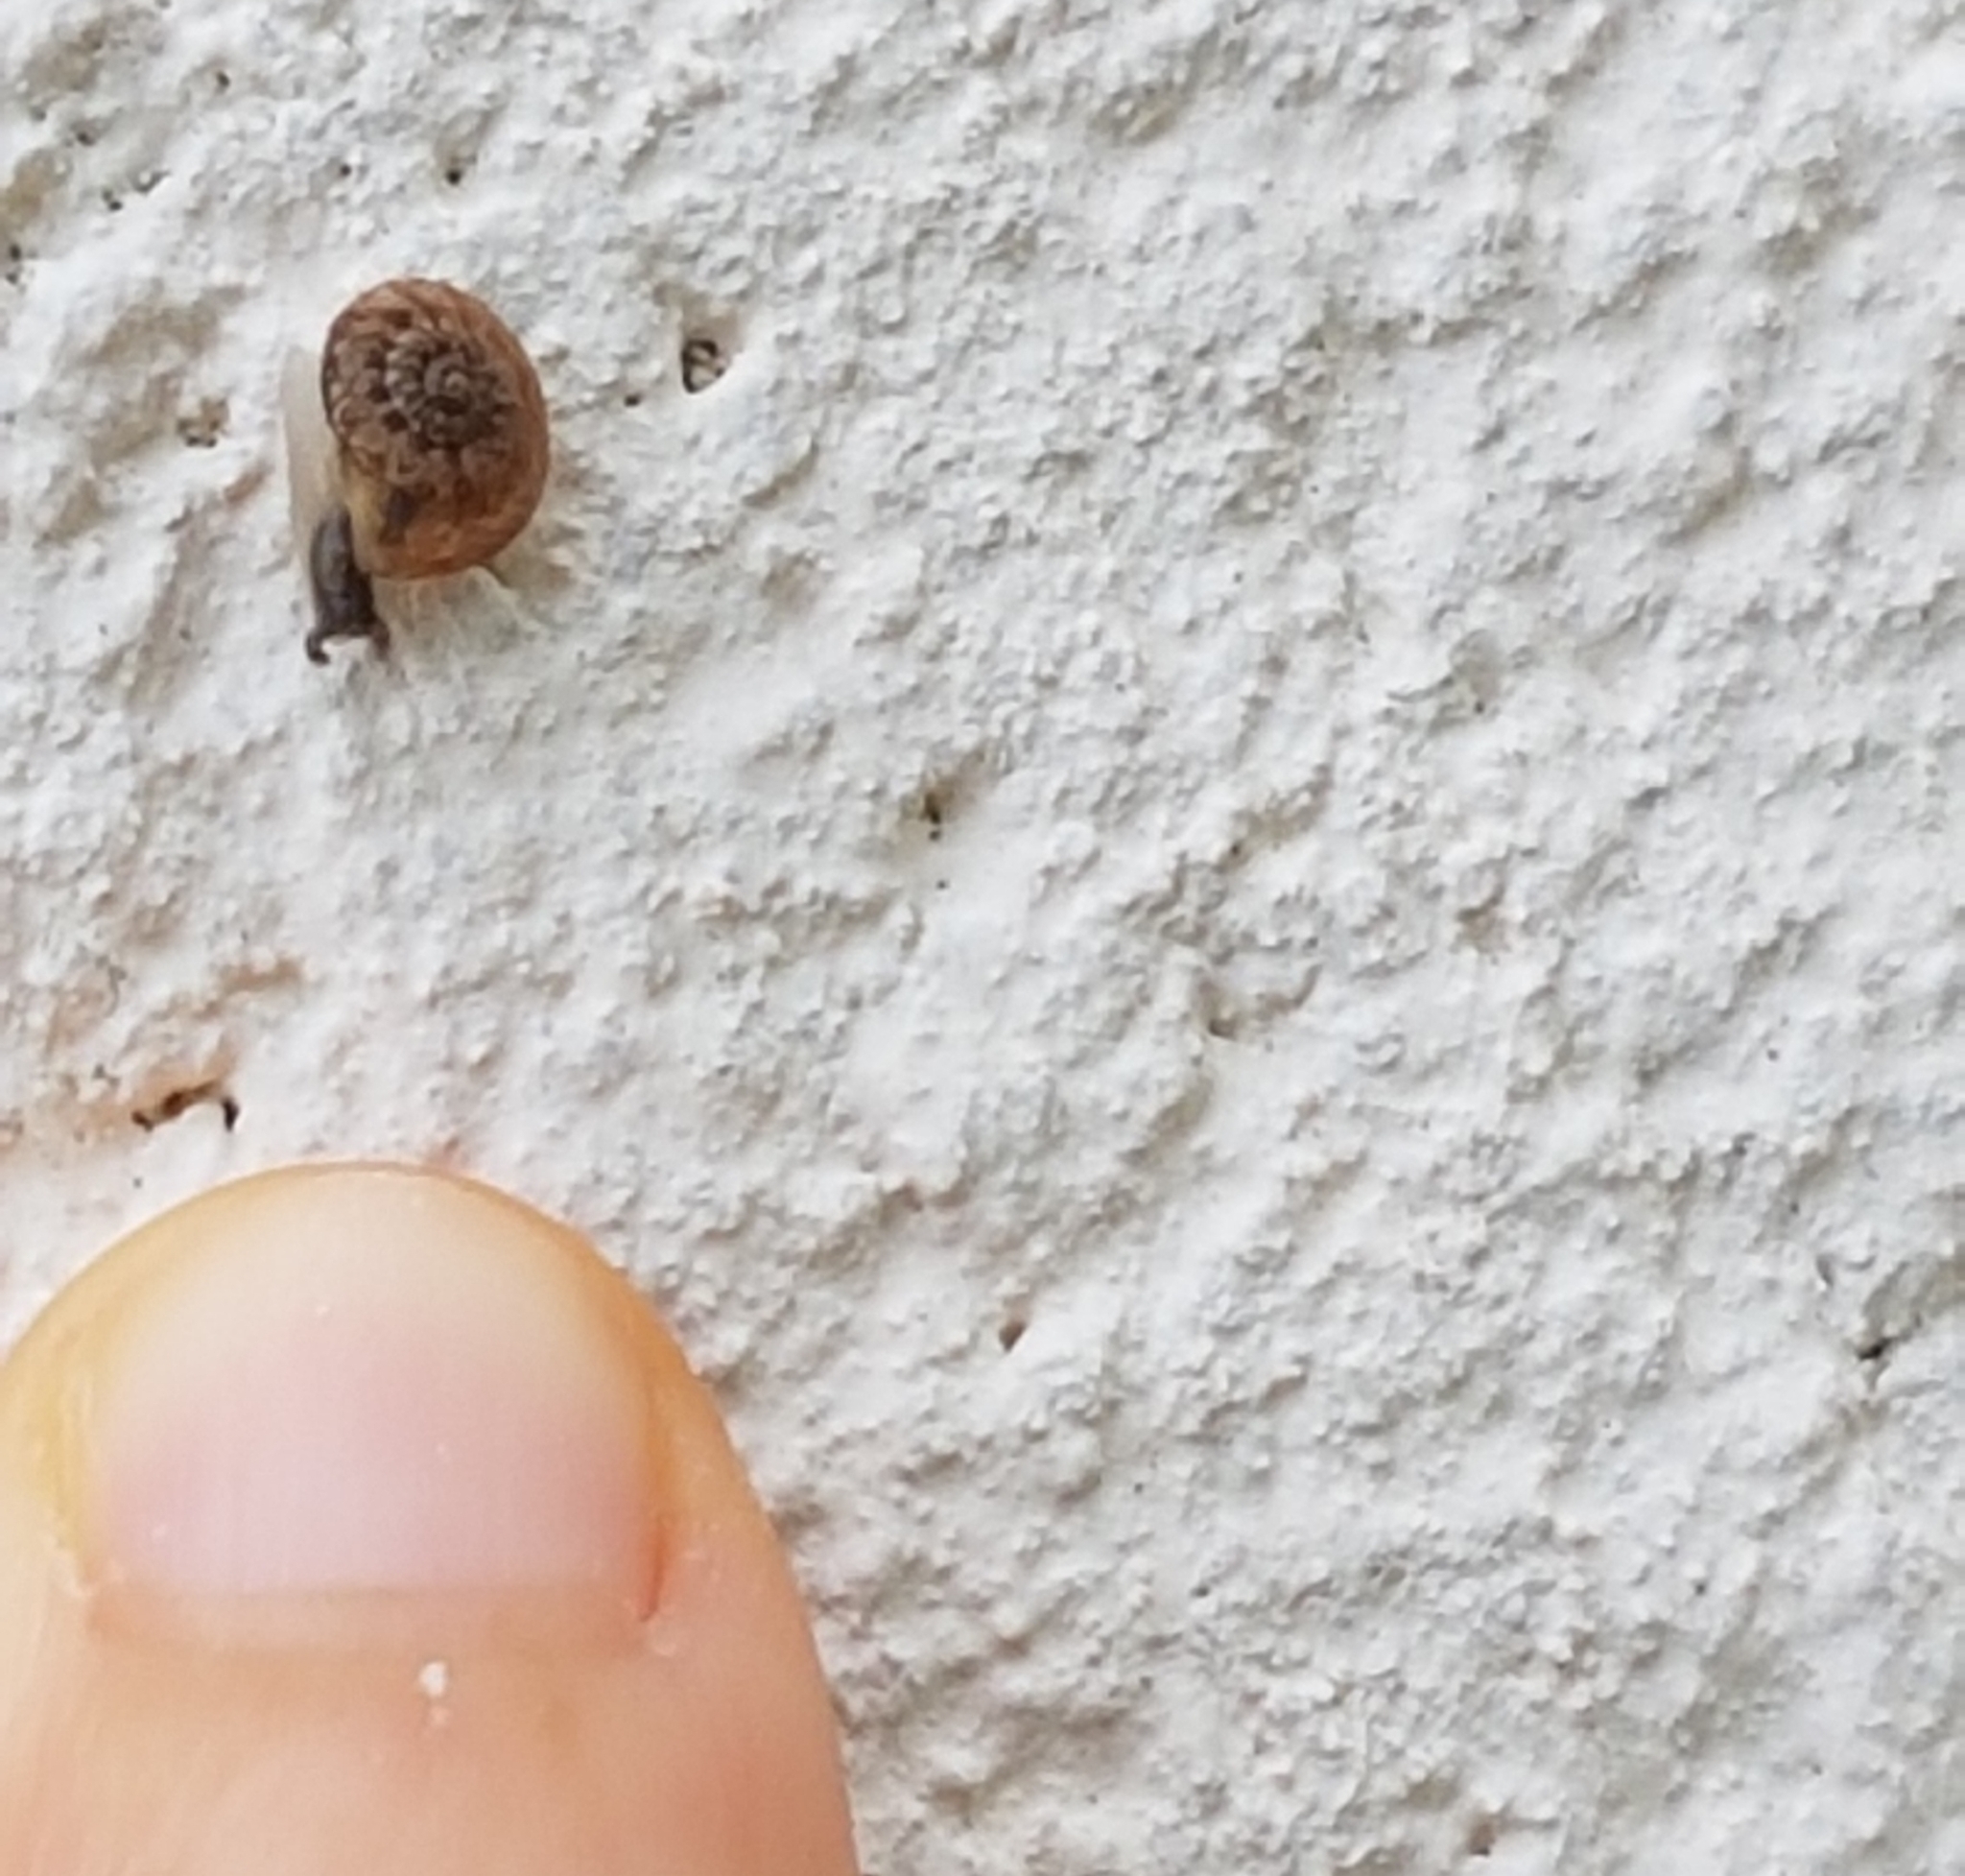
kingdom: Animalia
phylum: Mollusca
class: Gastropoda
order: Stylommatophora
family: Geomitridae
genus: Xerotricha
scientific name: Xerotricha conspurcata
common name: Snail
